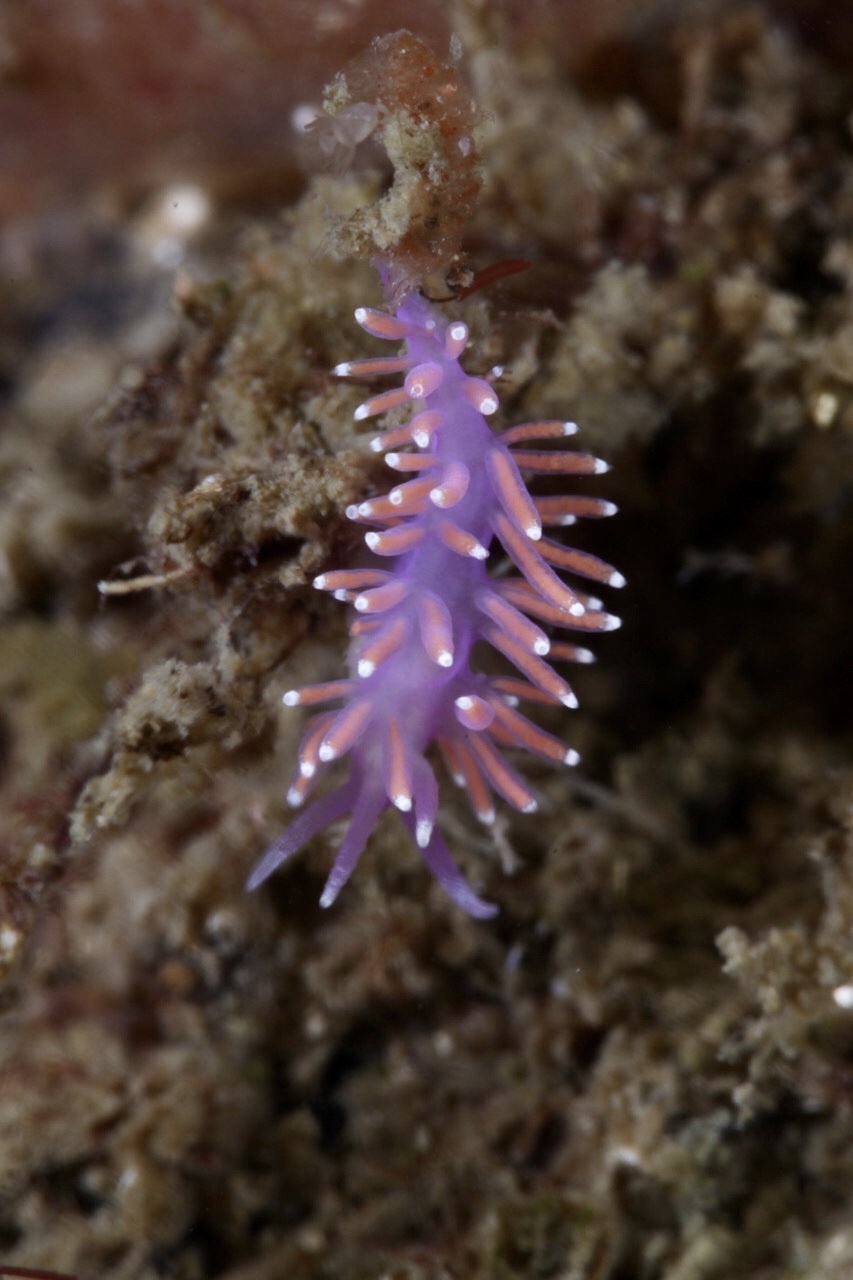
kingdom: Animalia
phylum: Mollusca
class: Gastropoda
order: Nudibranchia
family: Flabellinidae
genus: Edmundsella
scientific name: Edmundsella pedata
